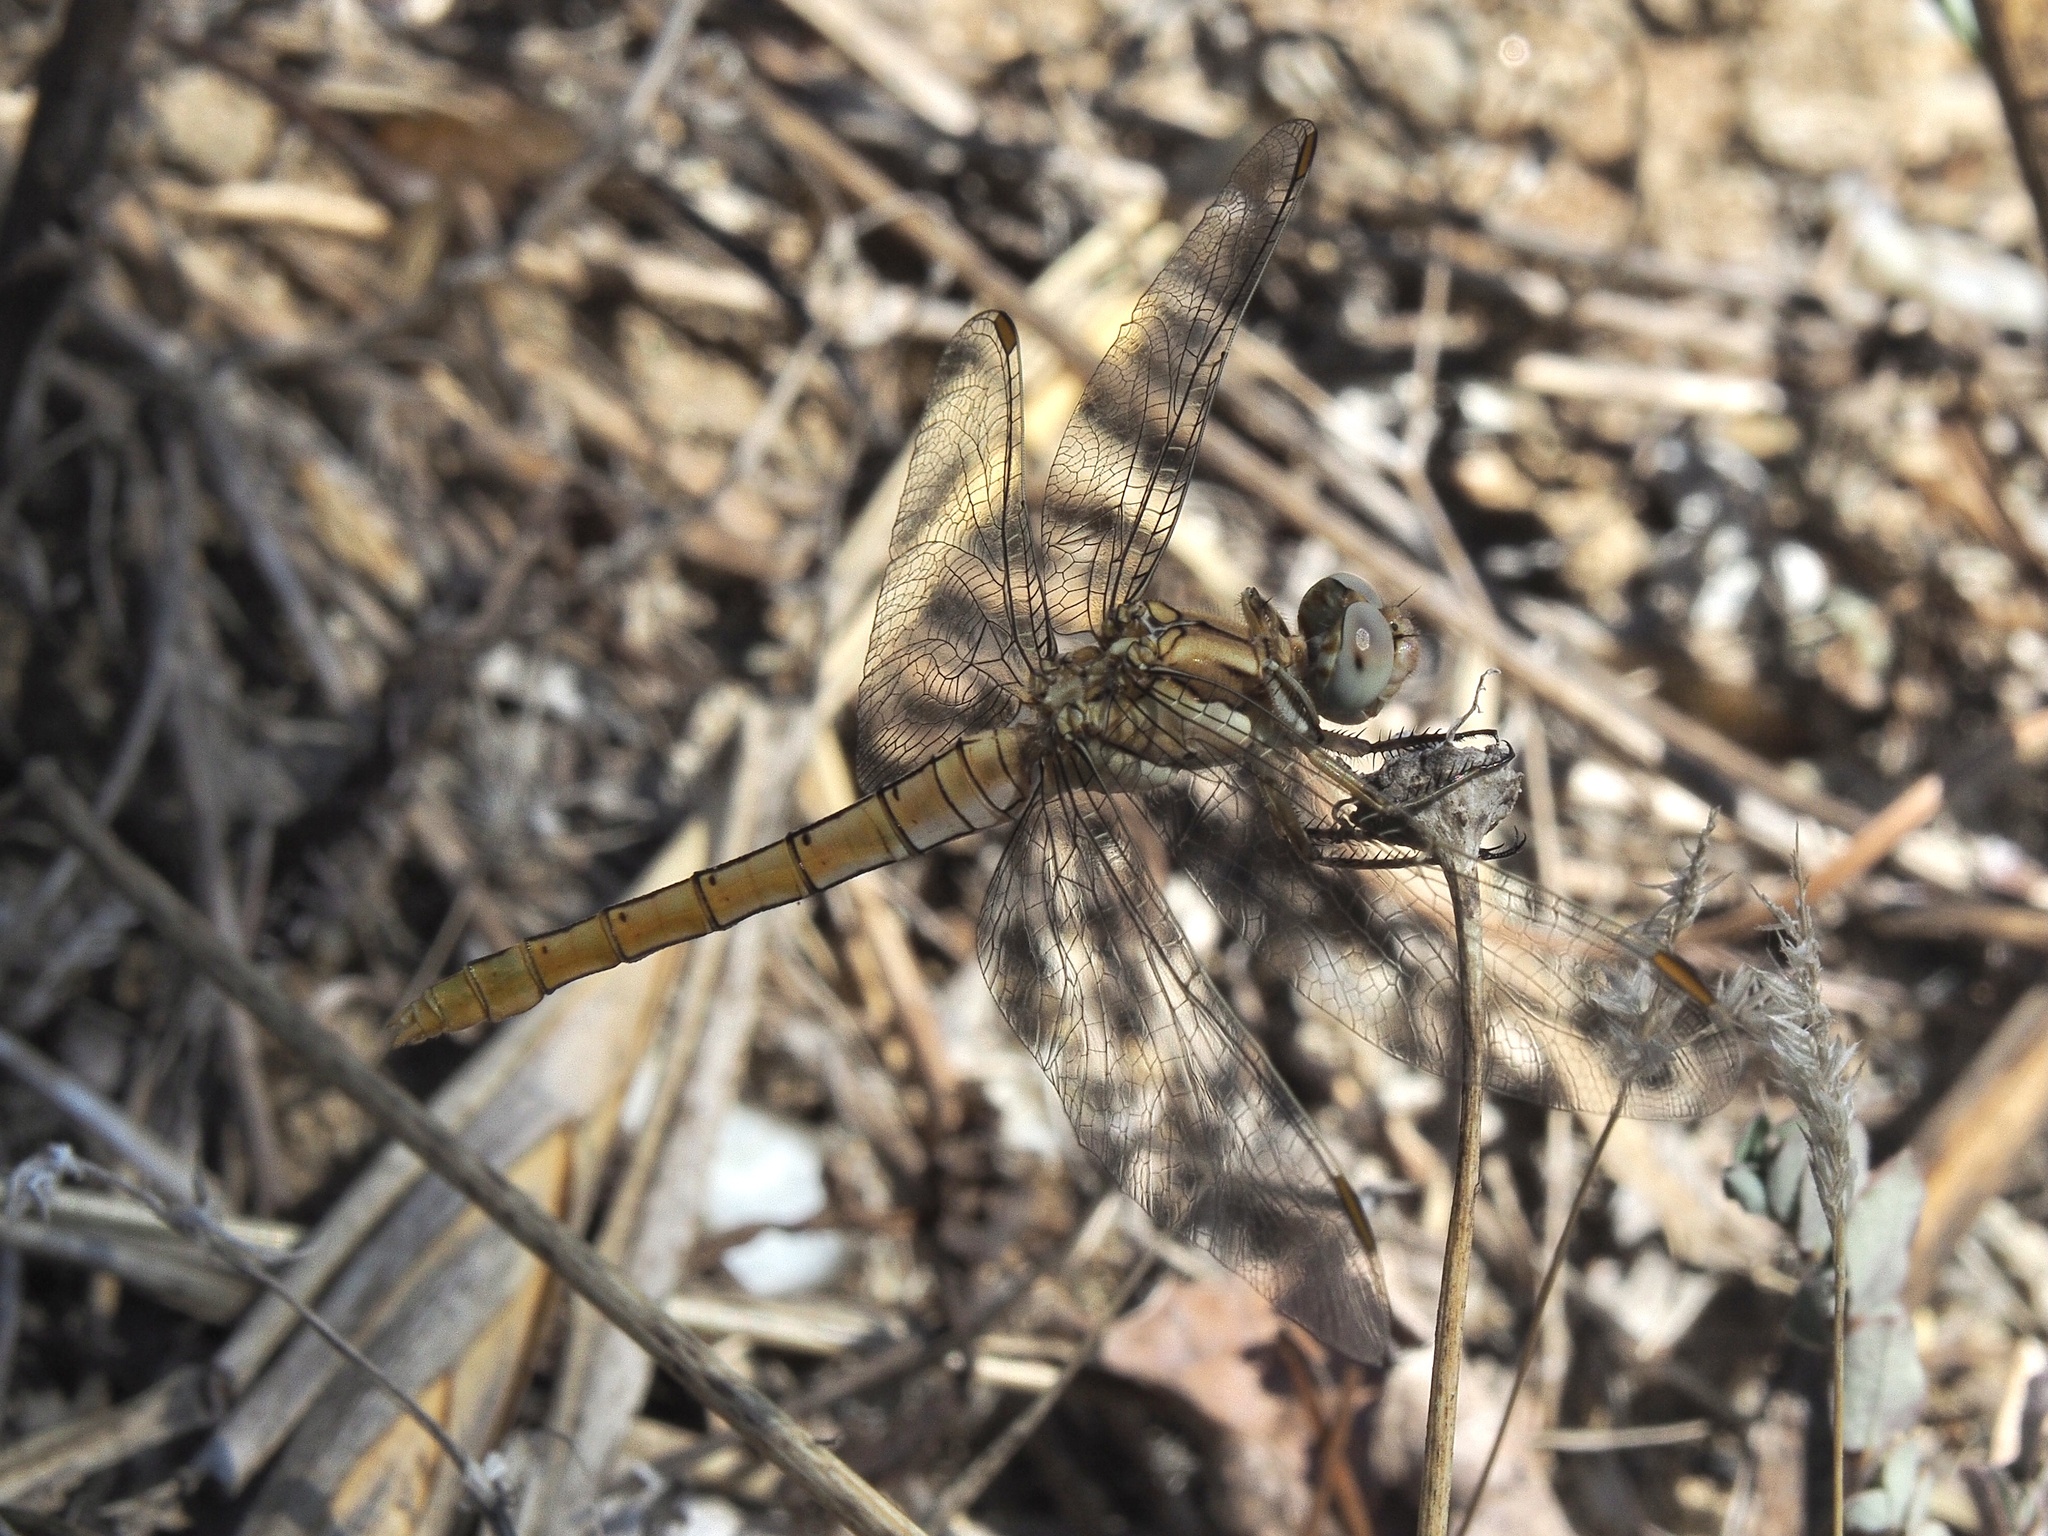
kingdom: Animalia
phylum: Arthropoda
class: Insecta
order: Odonata
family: Libellulidae
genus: Orthetrum
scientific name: Orthetrum brunneum
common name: Southern skimmer
